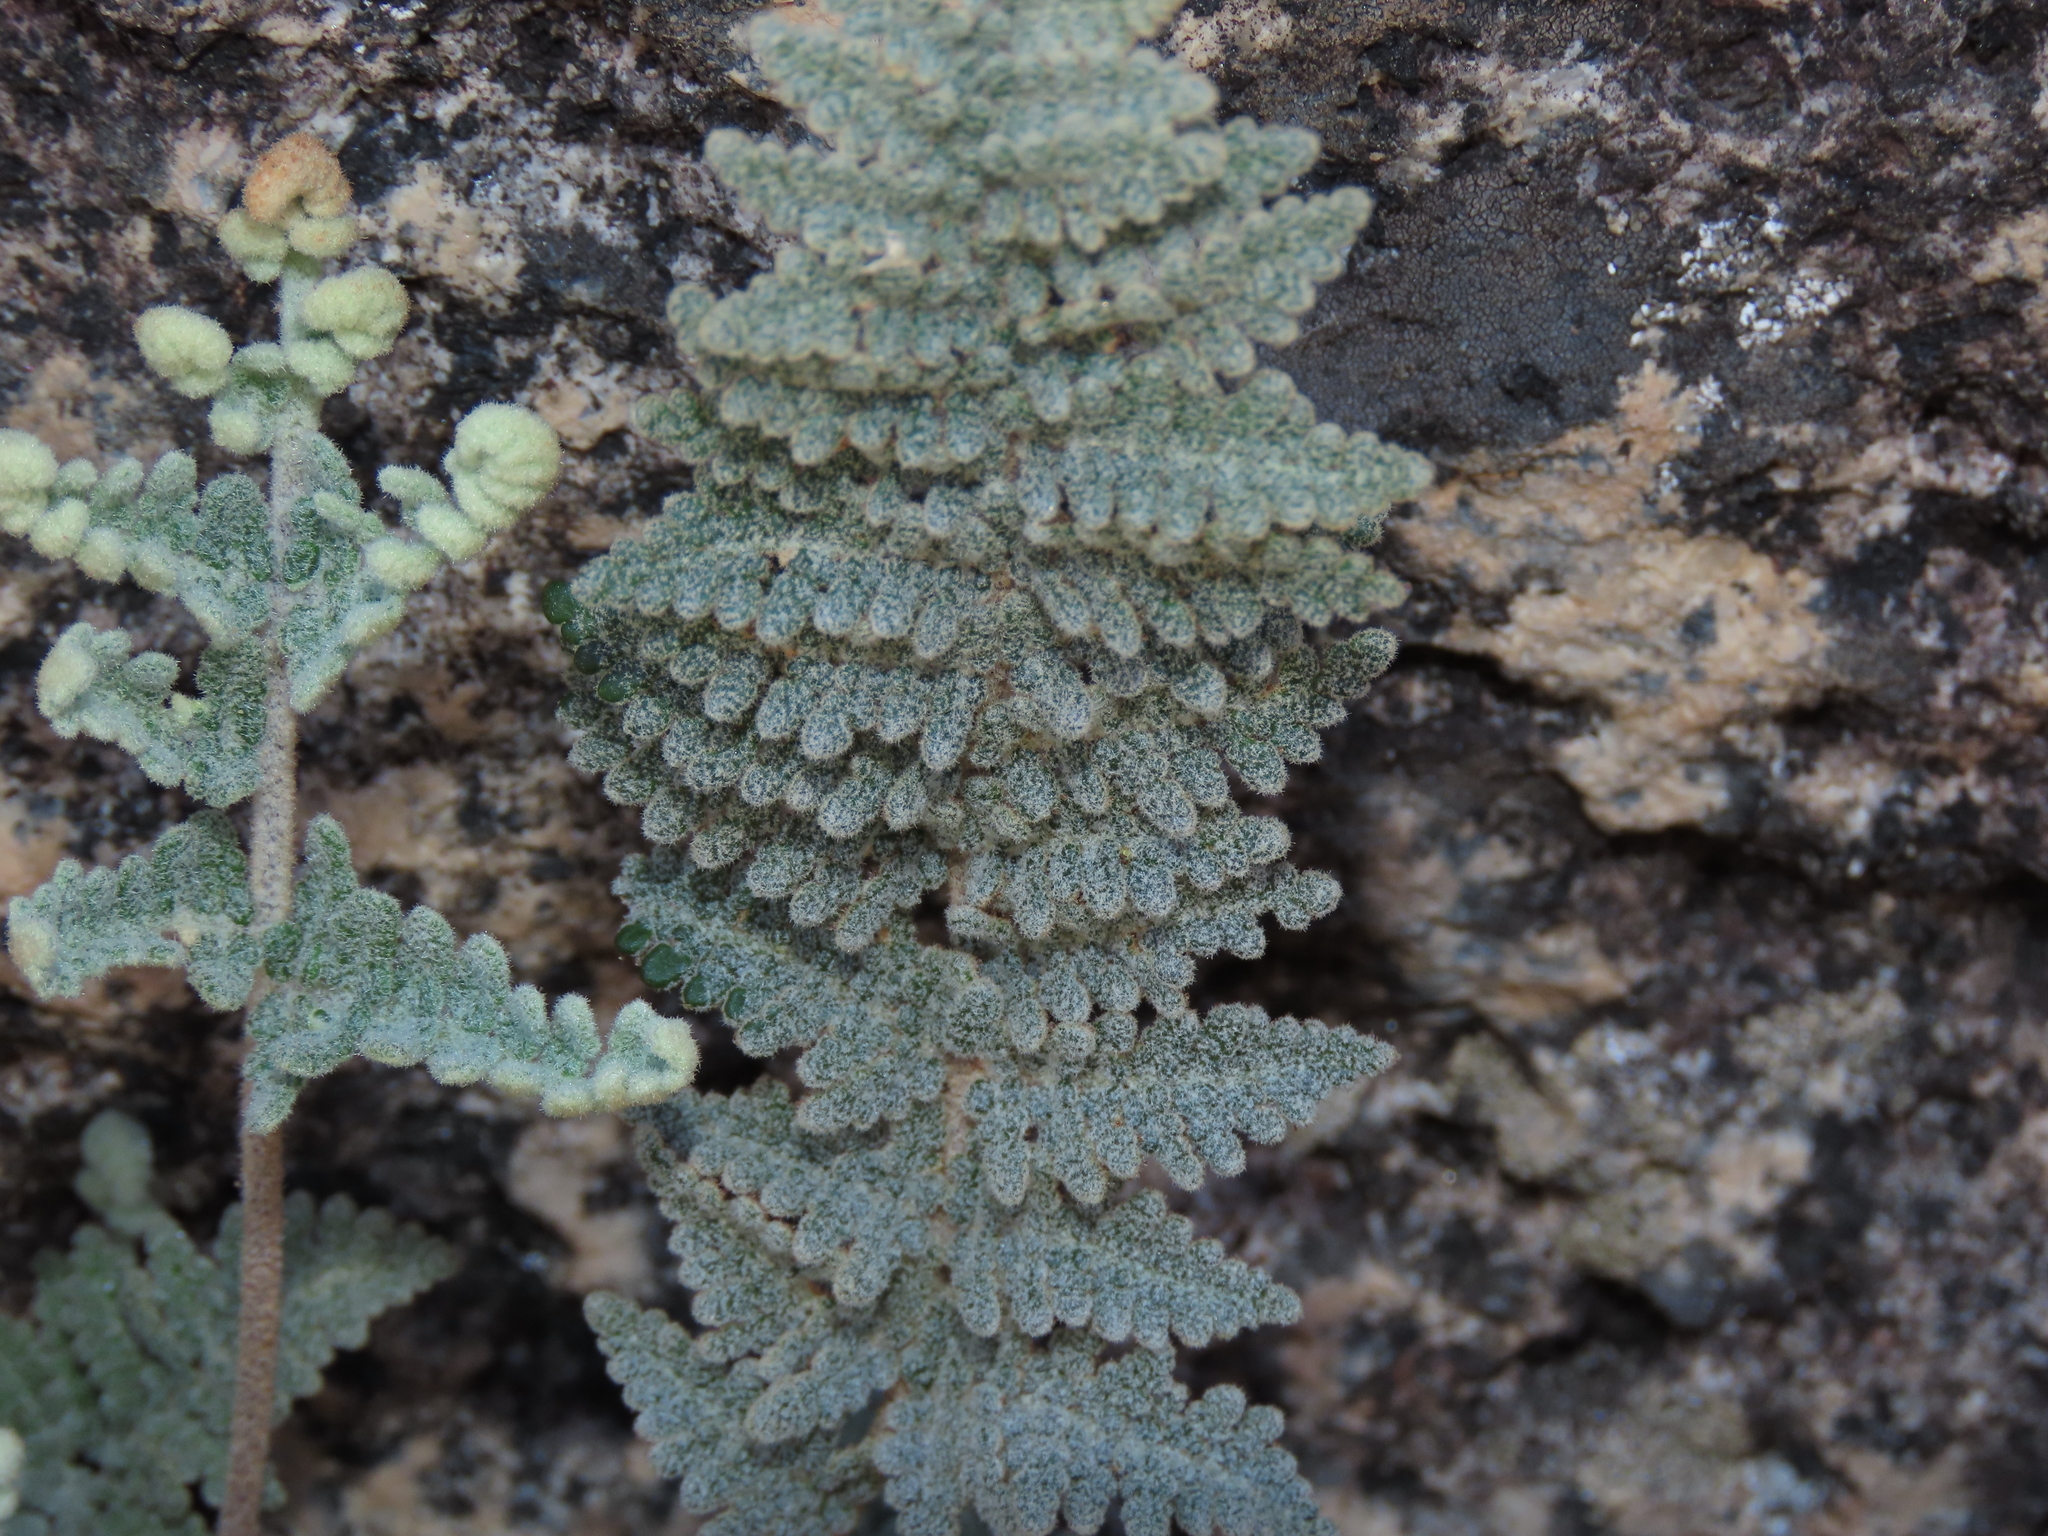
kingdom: Plantae
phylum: Tracheophyta
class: Polypodiopsida
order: Polypodiales
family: Pteridaceae
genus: Cheilanthes
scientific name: Cheilanthes mollis
